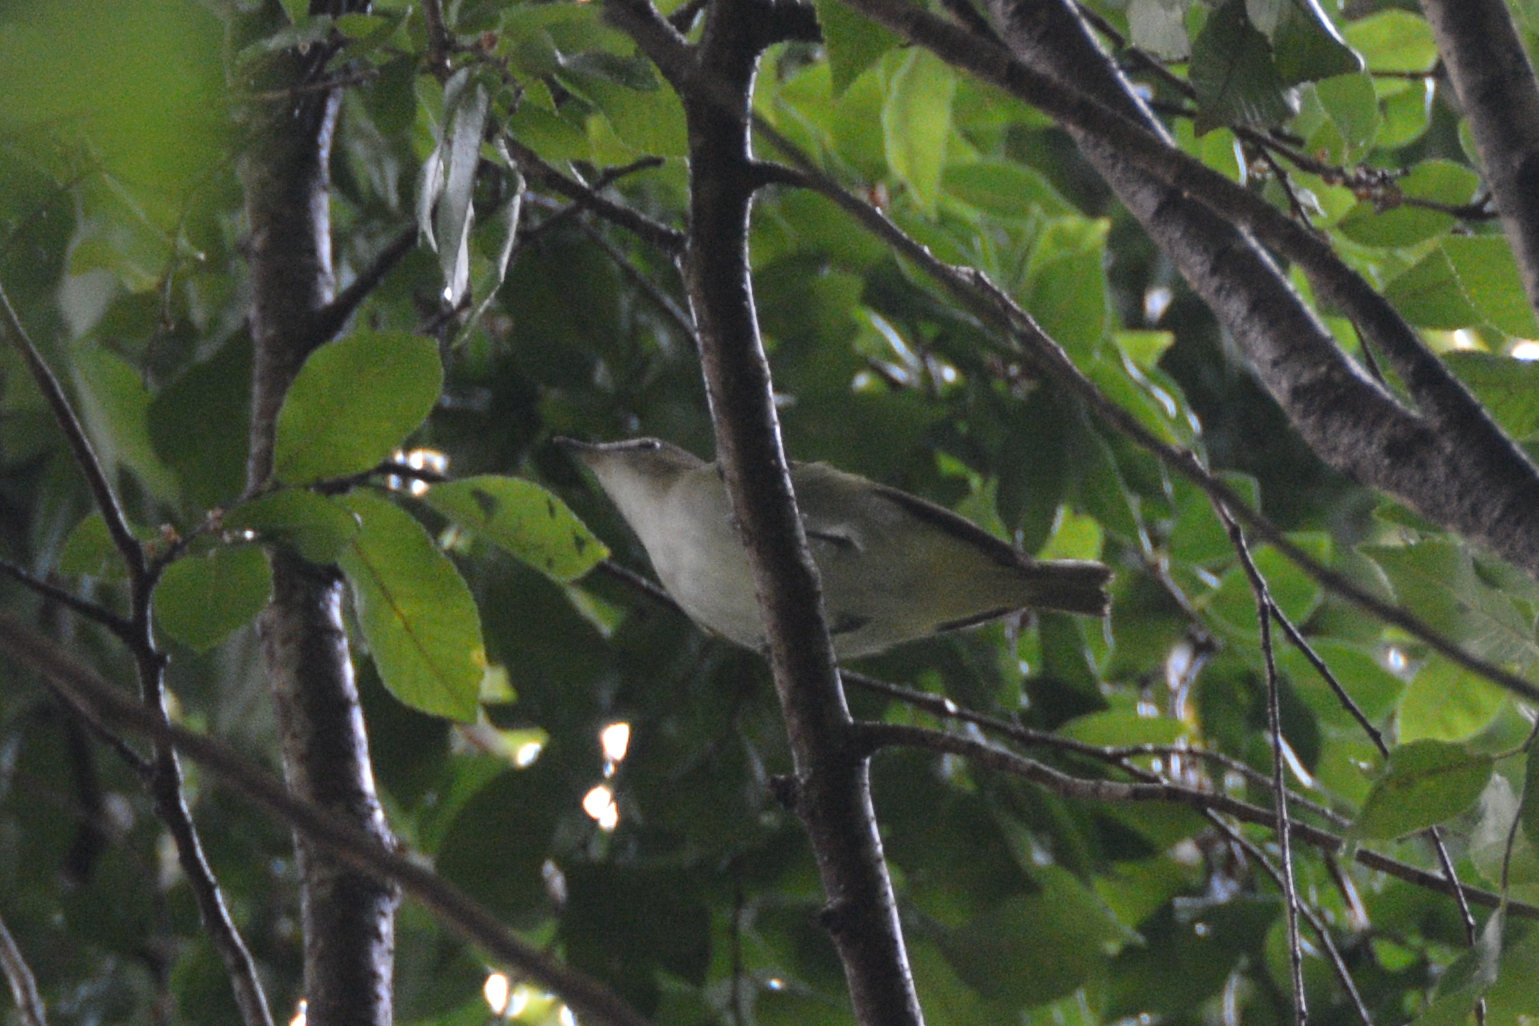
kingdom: Animalia
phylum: Chordata
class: Aves
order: Passeriformes
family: Vireonidae
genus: Vireo
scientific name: Vireo olivaceus
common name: Red-eyed vireo
